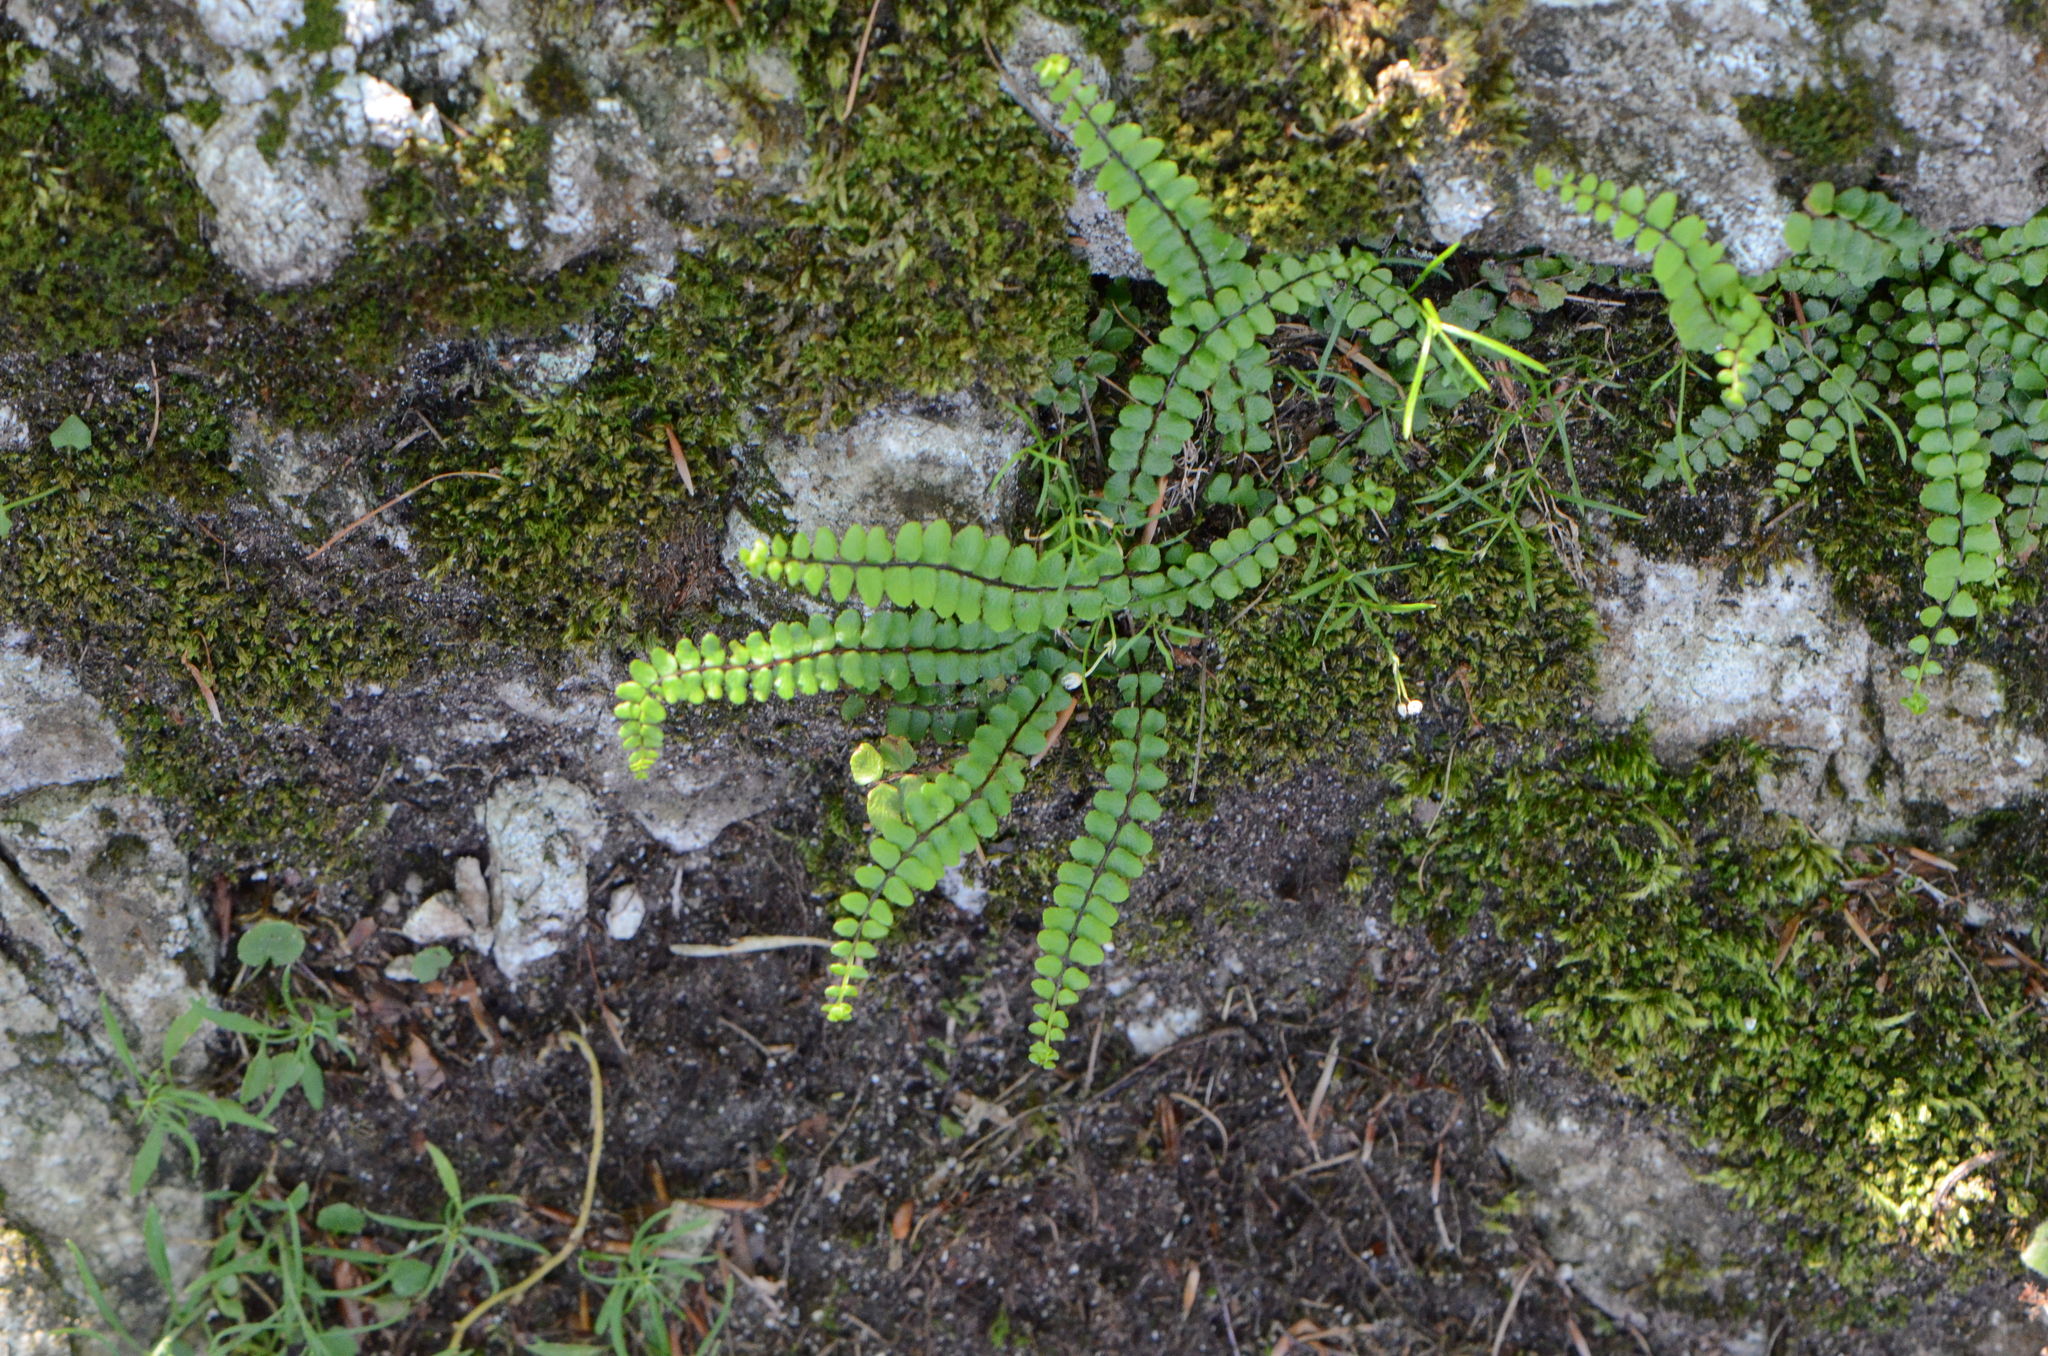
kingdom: Plantae
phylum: Tracheophyta
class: Polypodiopsida
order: Polypodiales
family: Aspleniaceae
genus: Asplenium
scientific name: Asplenium trichomanes
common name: Maidenhair spleenwort
